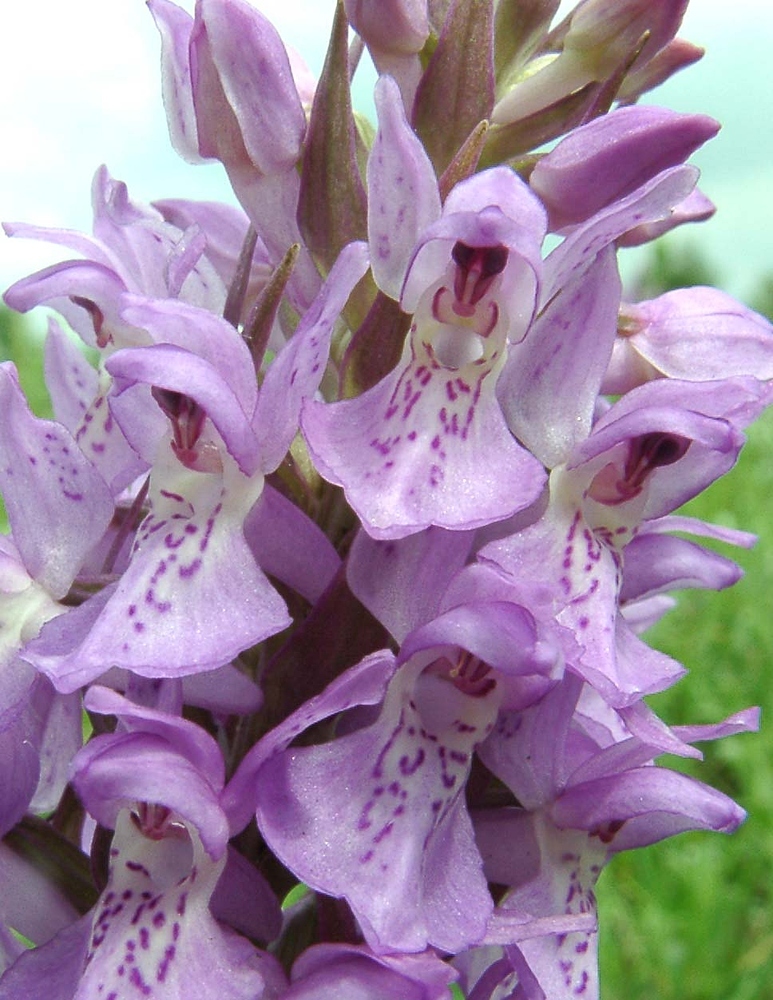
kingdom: Plantae
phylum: Tracheophyta
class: Liliopsida
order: Asparagales
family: Orchidaceae
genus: Dactylorhiza
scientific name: Dactylorhiza majalis
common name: Marsh orchid
